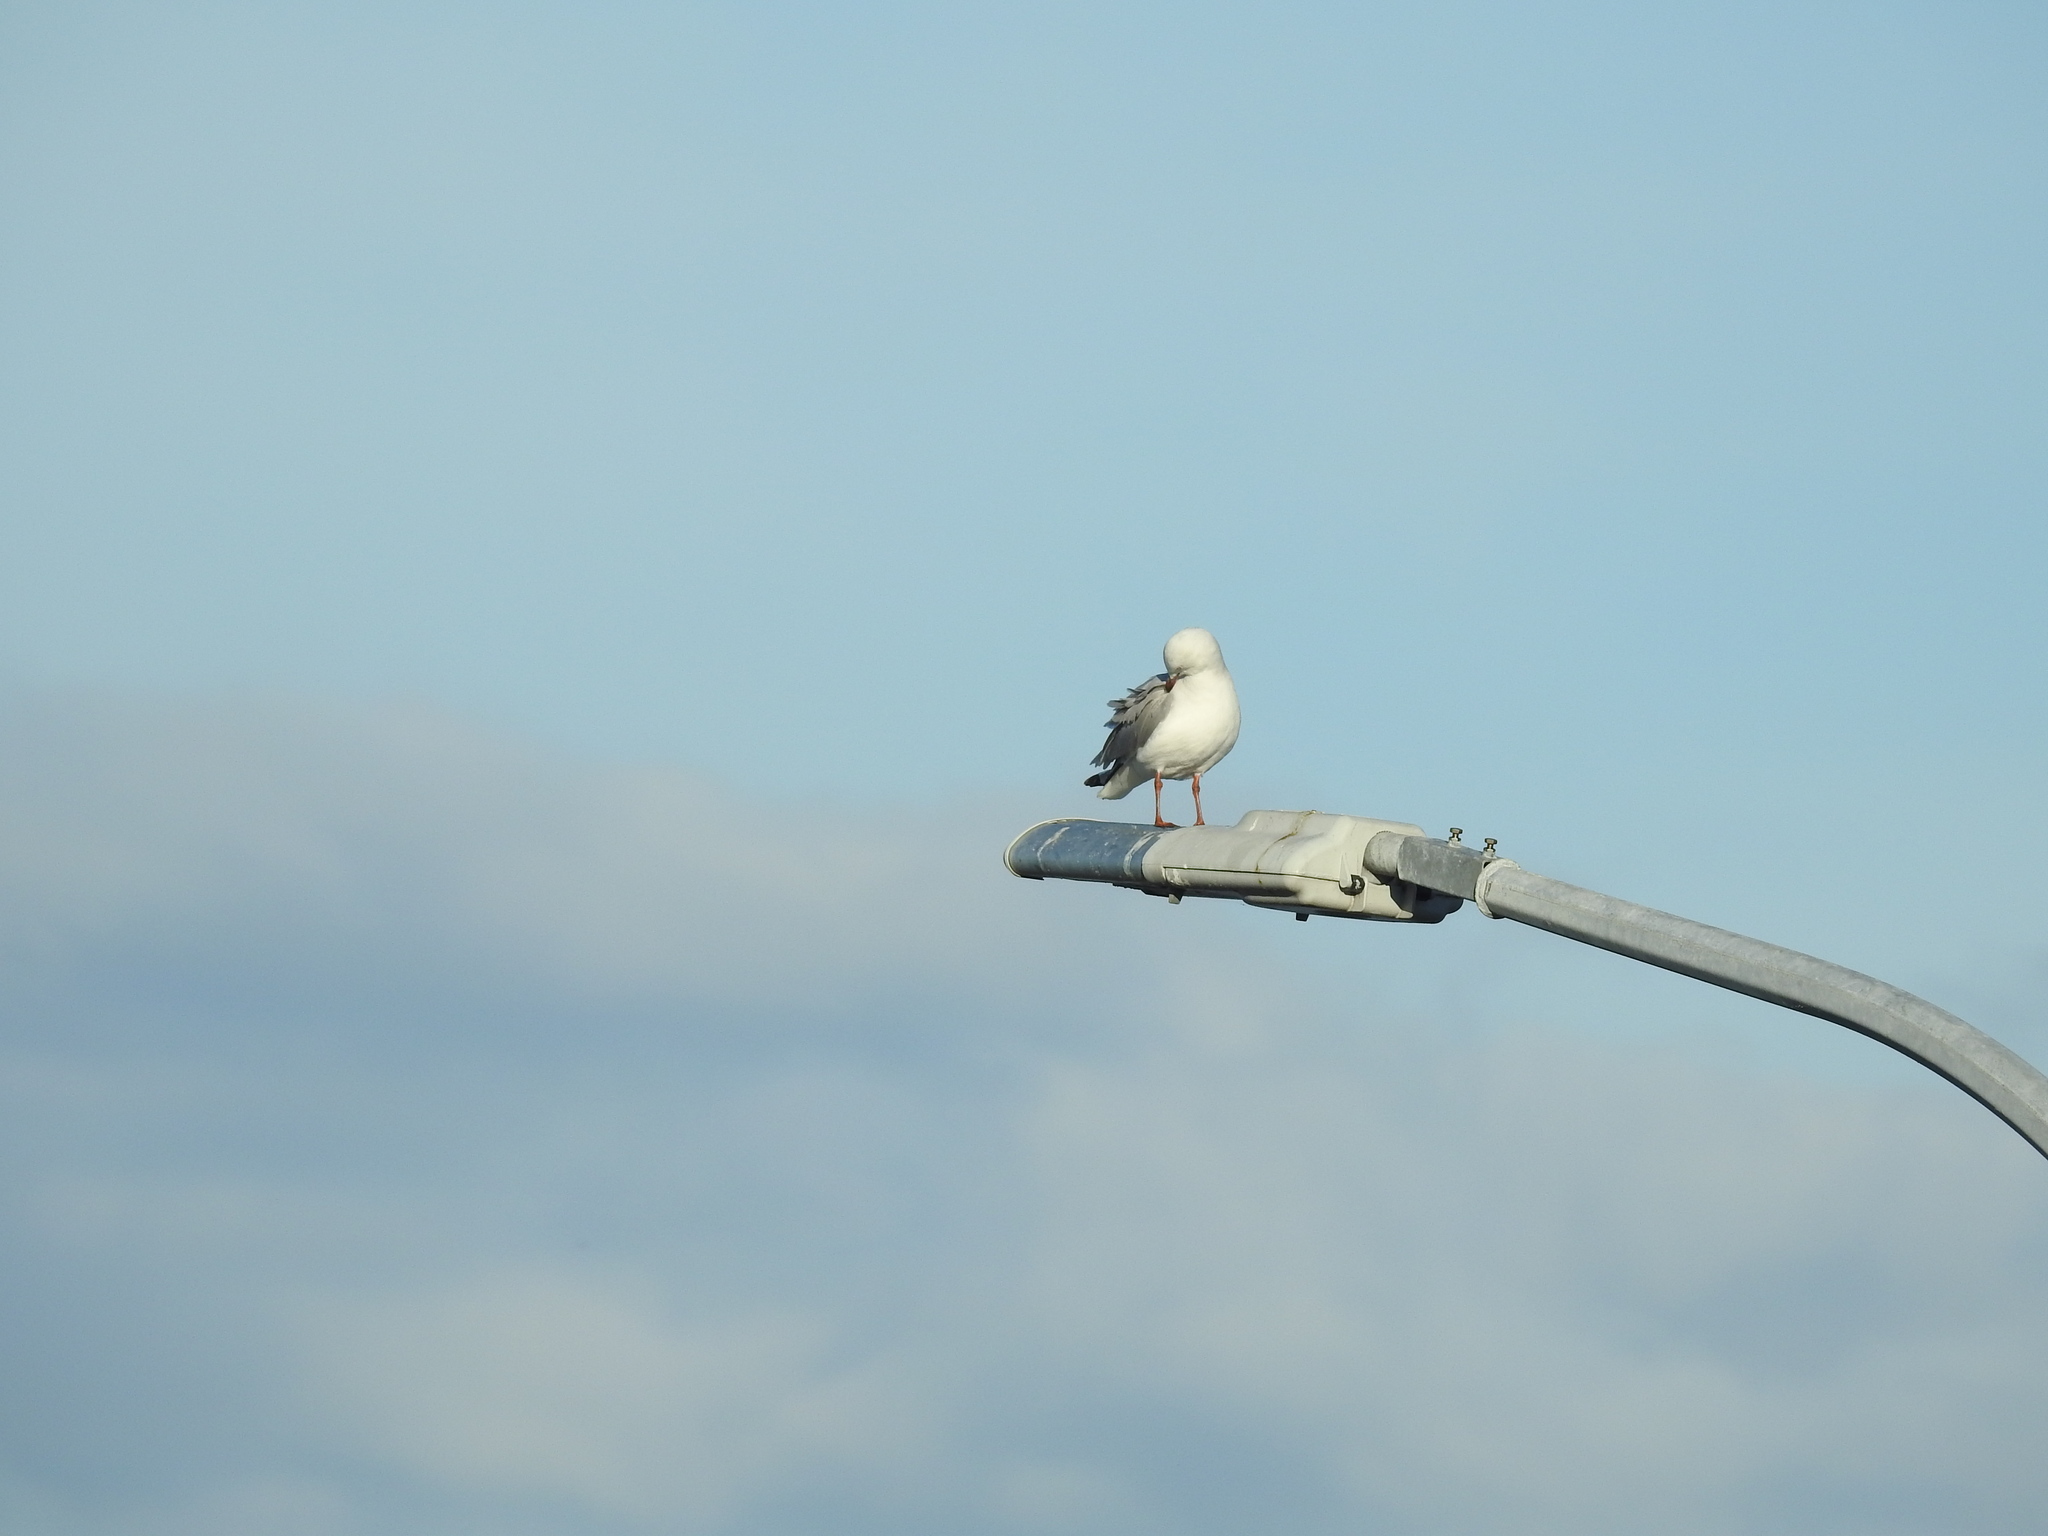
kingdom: Animalia
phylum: Chordata
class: Aves
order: Charadriiformes
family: Laridae
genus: Chroicocephalus
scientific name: Chroicocephalus novaehollandiae
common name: Silver gull
